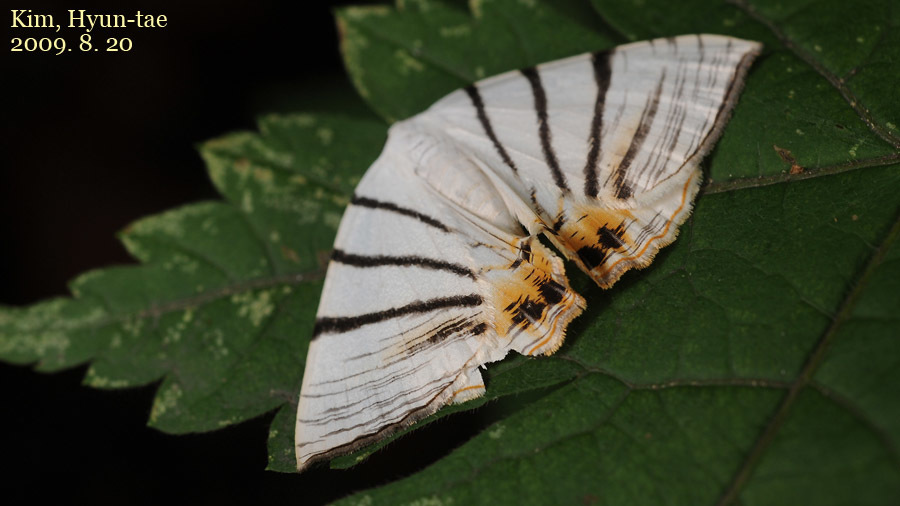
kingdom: Animalia
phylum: Arthropoda
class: Insecta
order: Lepidoptera
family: Geometridae
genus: Myrteta
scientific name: Myrteta angelica
